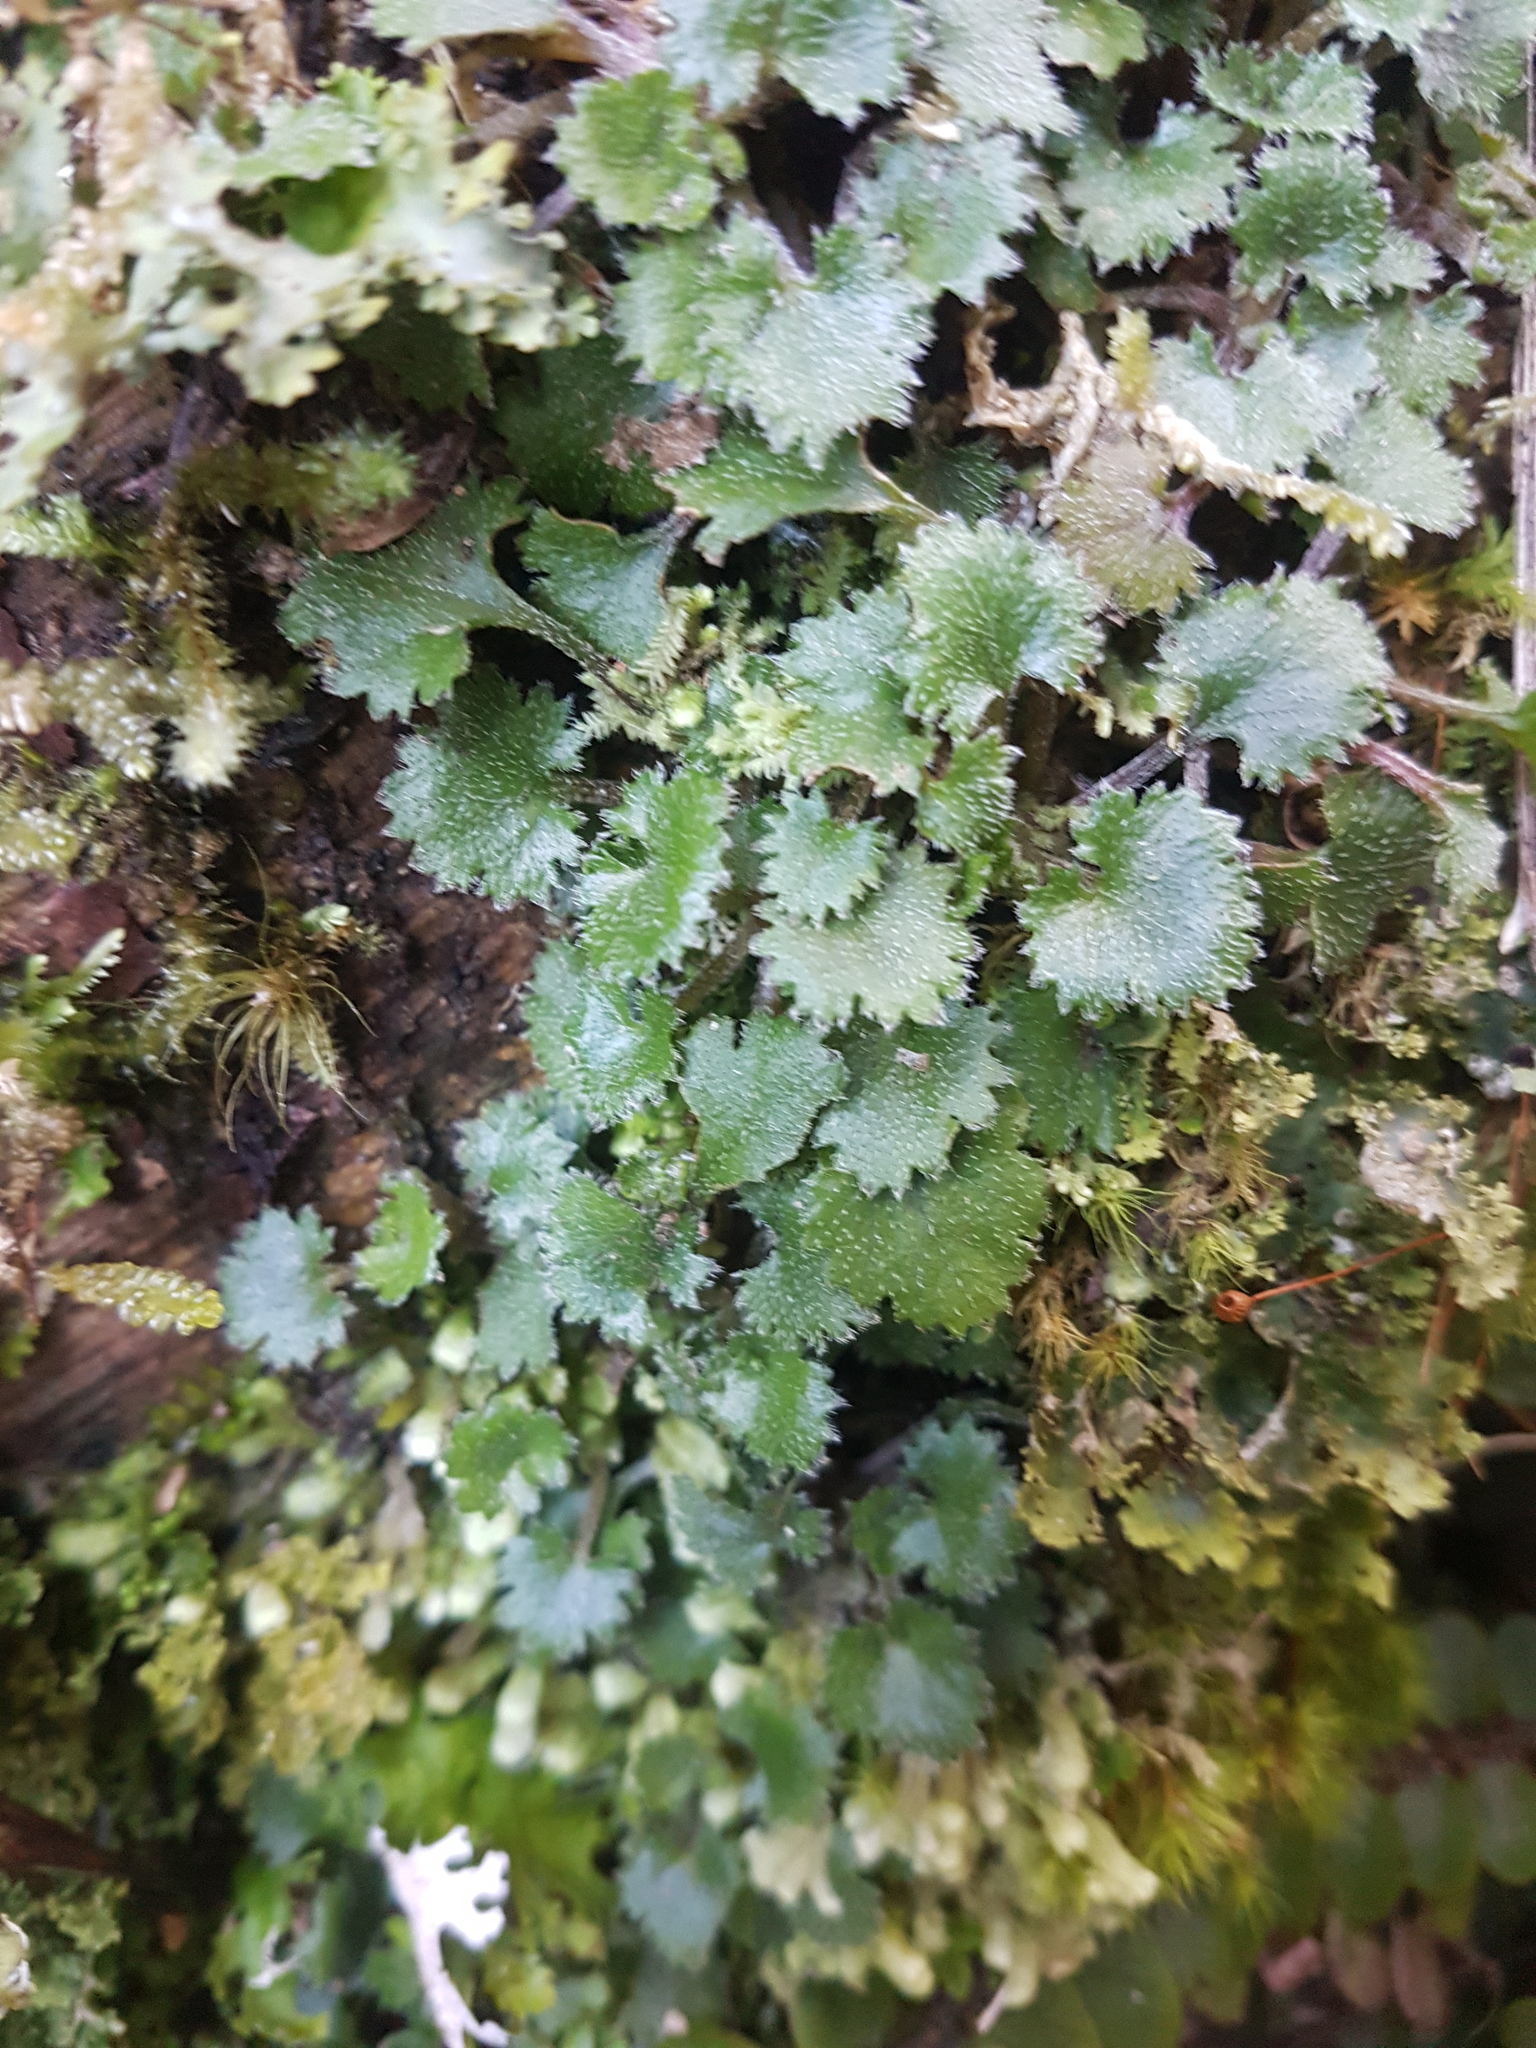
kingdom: Plantae
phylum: Tracheophyta
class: Magnoliopsida
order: Gunnerales
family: Gunneraceae
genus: Gunnera
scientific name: Gunnera monoica
